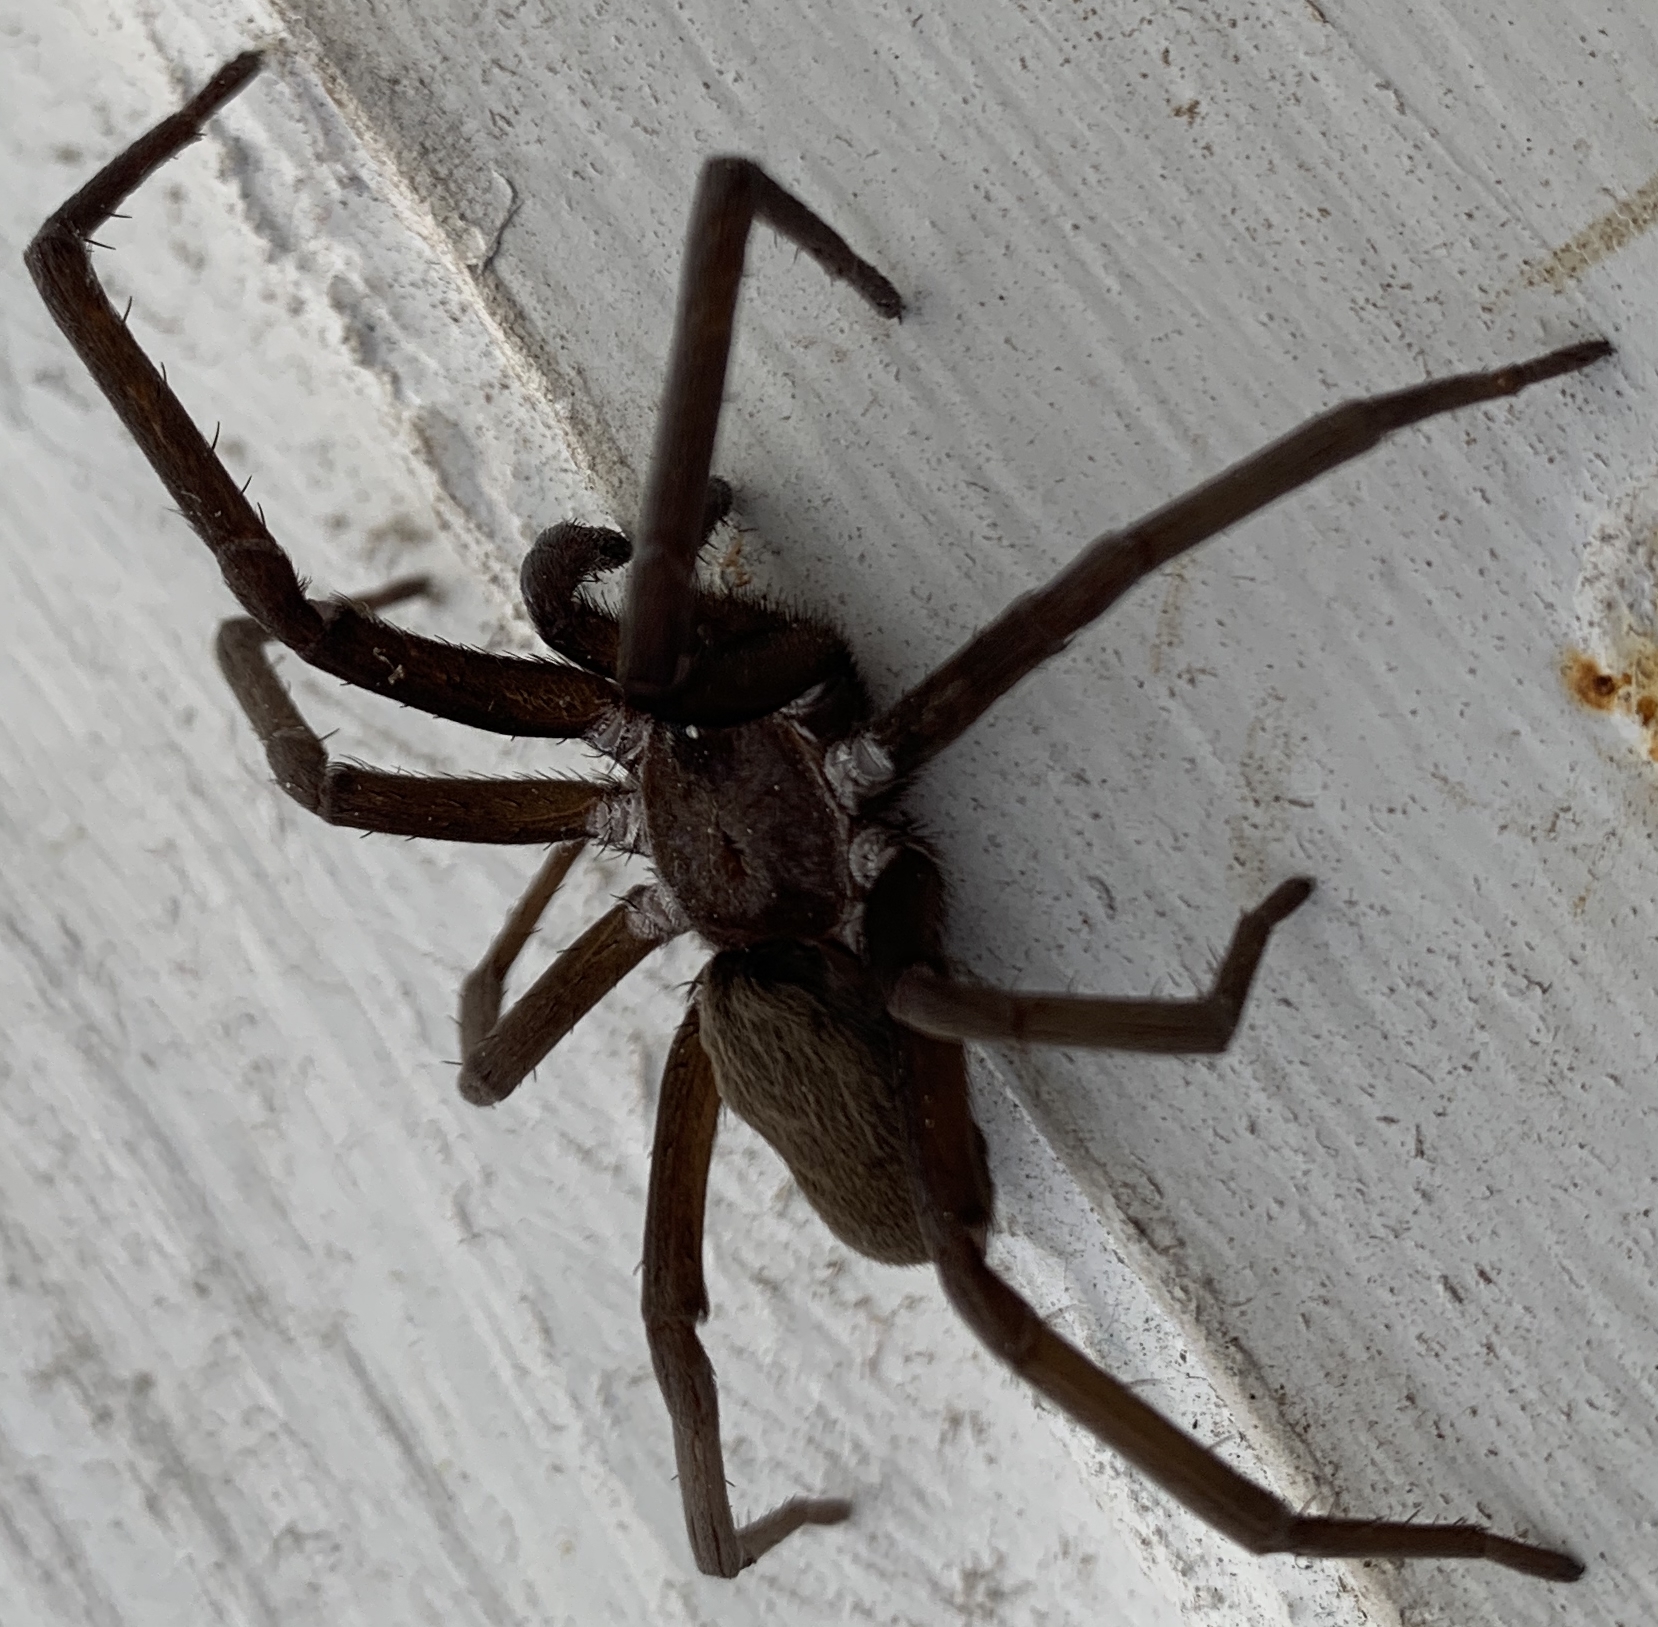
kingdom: Animalia
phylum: Arthropoda
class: Arachnida
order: Araneae
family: Filistatidae
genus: Kukulcania
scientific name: Kukulcania hibernalis
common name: Crevice weaver
